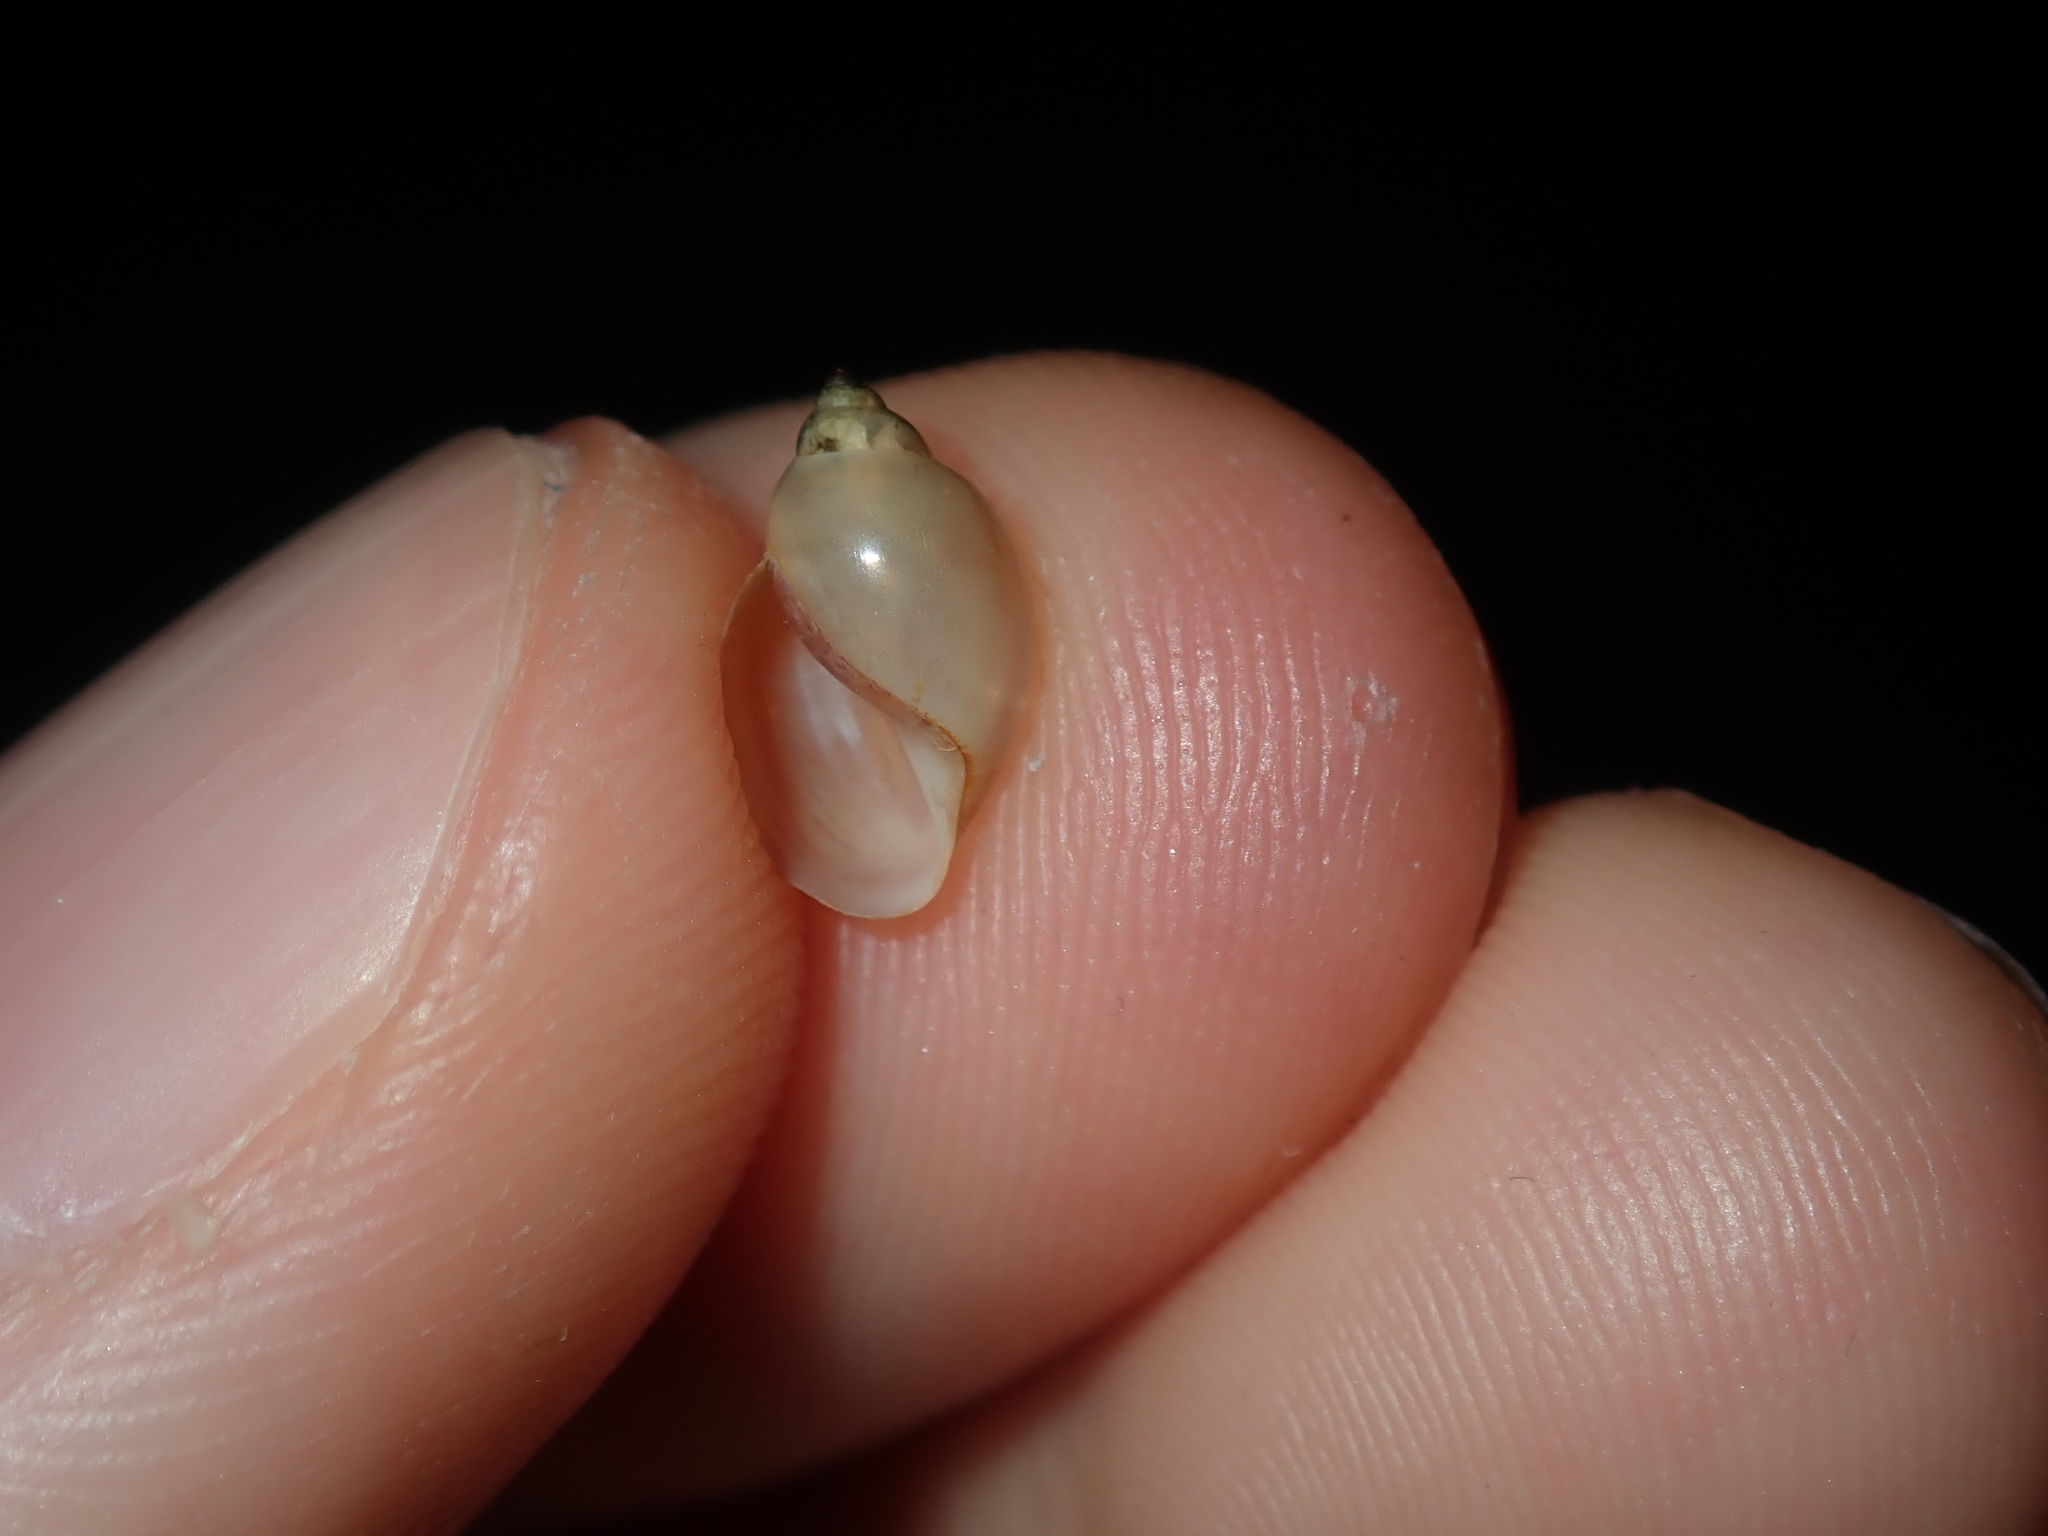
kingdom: Animalia
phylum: Mollusca
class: Gastropoda
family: Physidae
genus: Physella
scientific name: Physella acuta
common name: European physa
